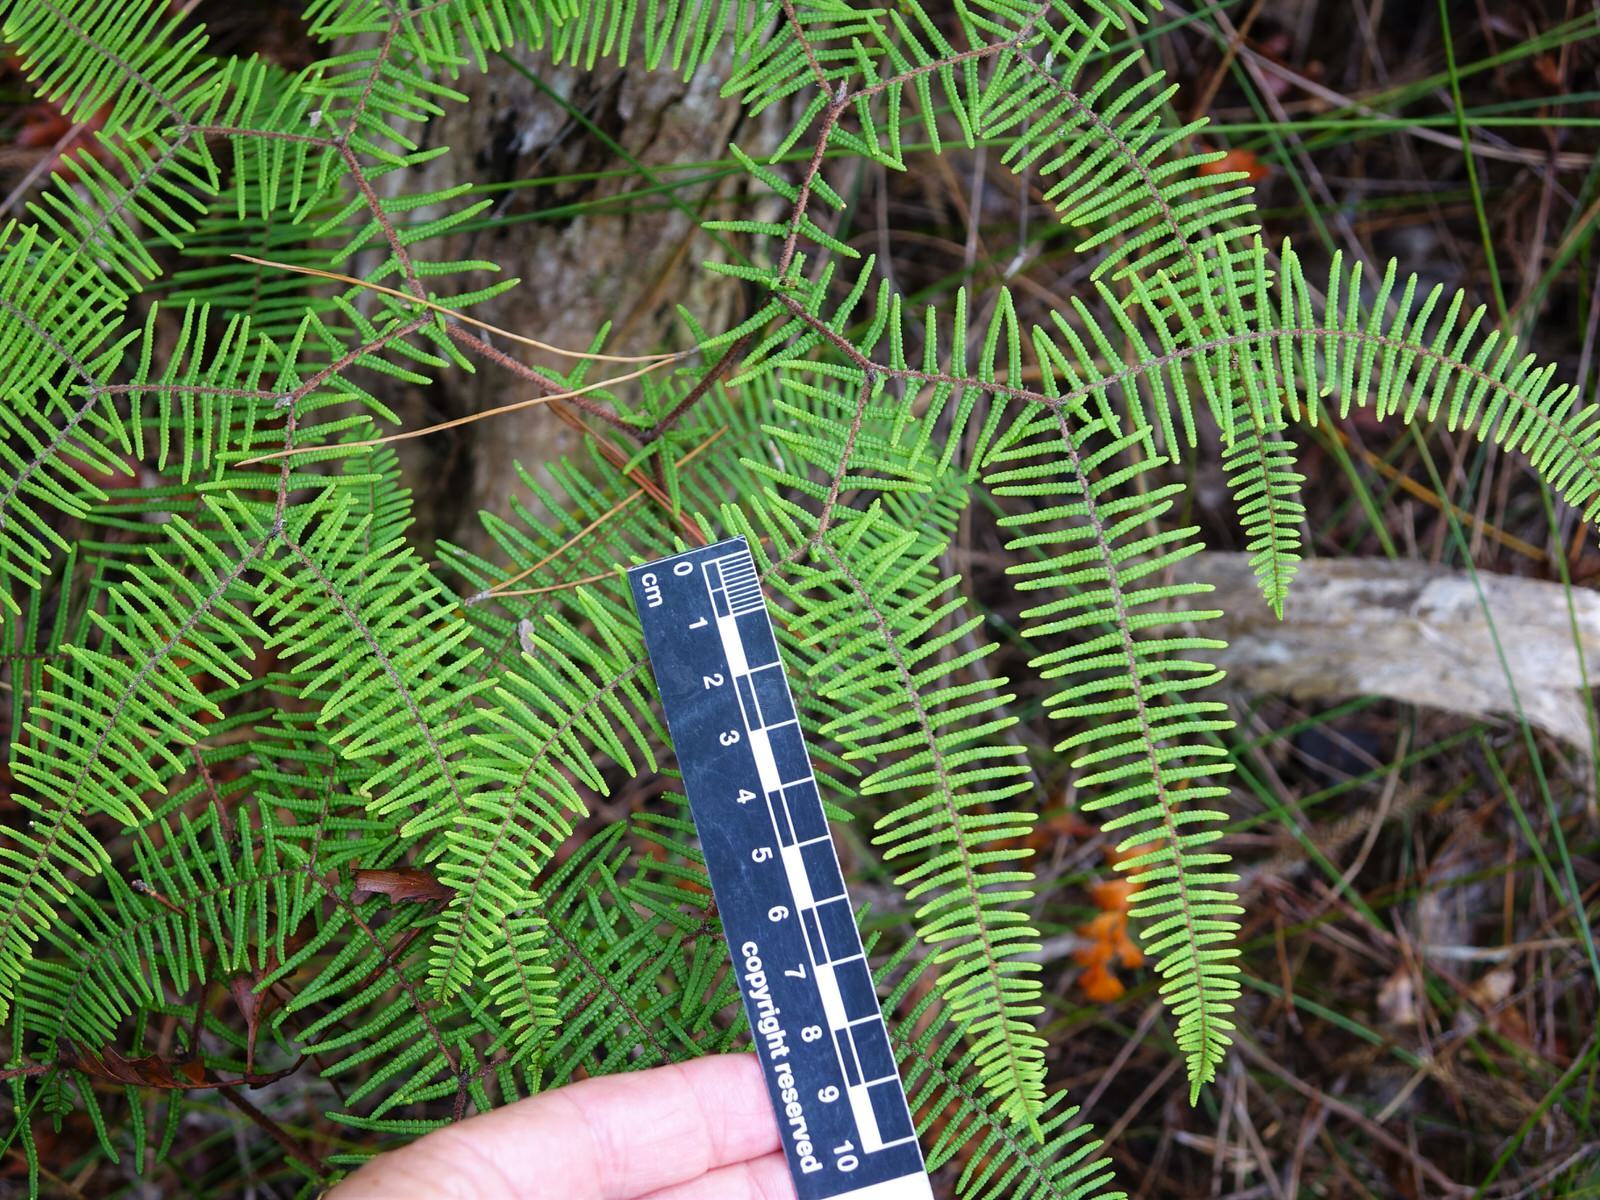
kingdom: Plantae
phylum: Tracheophyta
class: Polypodiopsida
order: Gleicheniales
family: Gleicheniaceae
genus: Gleichenia
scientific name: Gleichenia dicarpa
